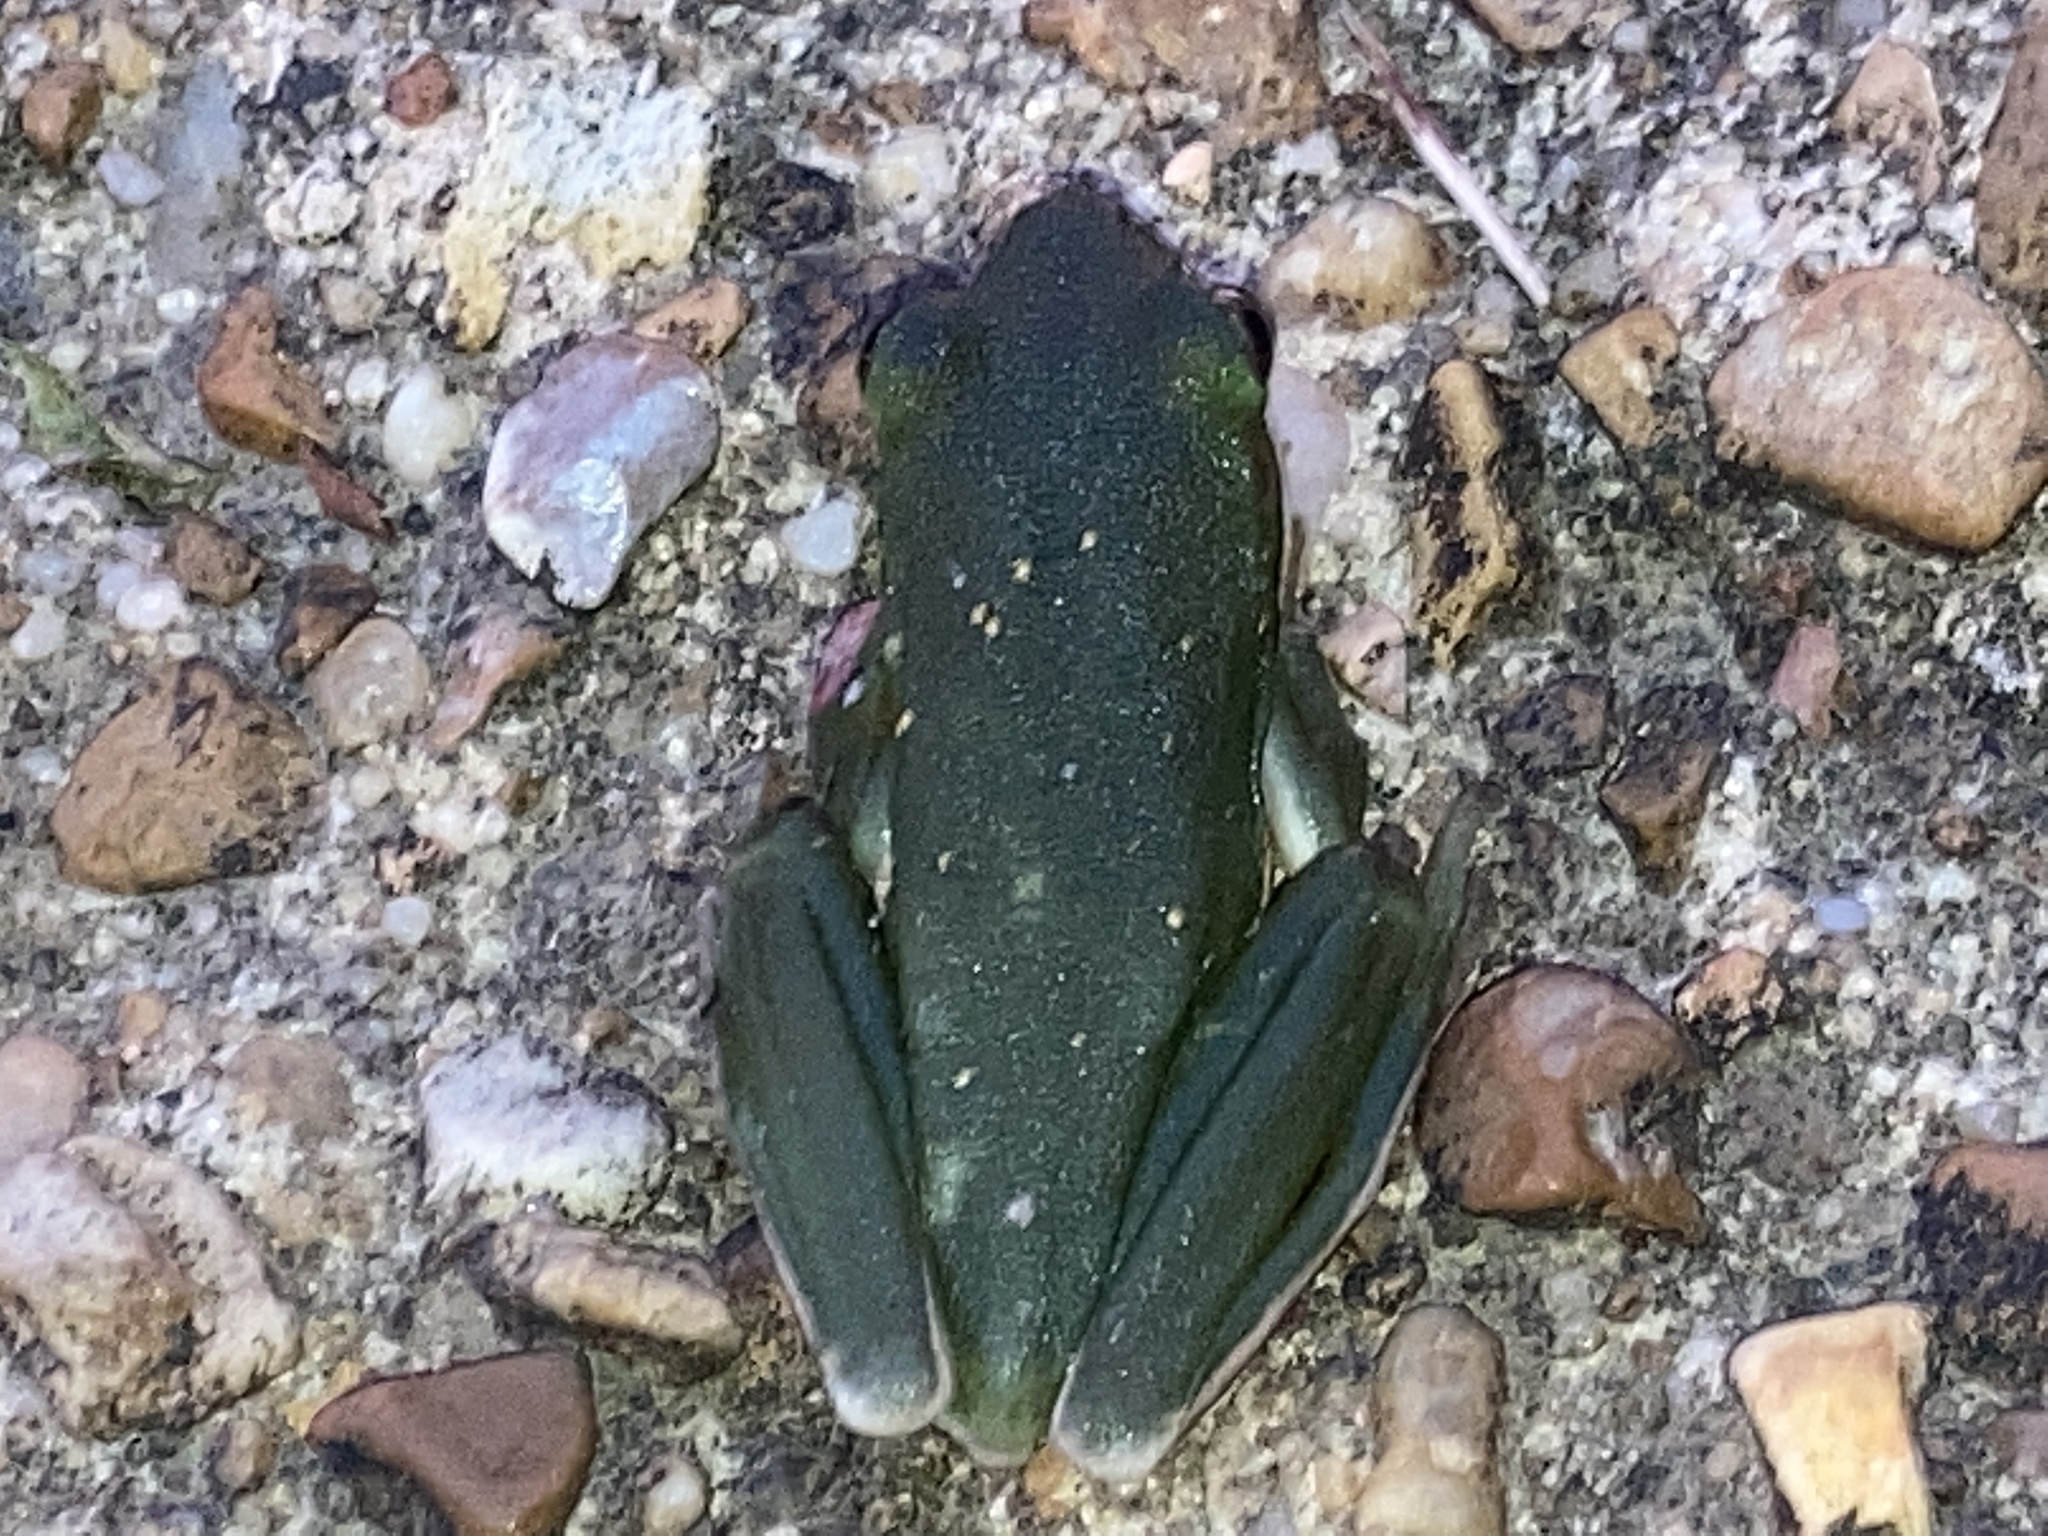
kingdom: Animalia
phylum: Chordata
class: Amphibia
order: Anura
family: Hylidae
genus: Dryophytes
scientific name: Dryophytes cinereus
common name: Green treefrog
